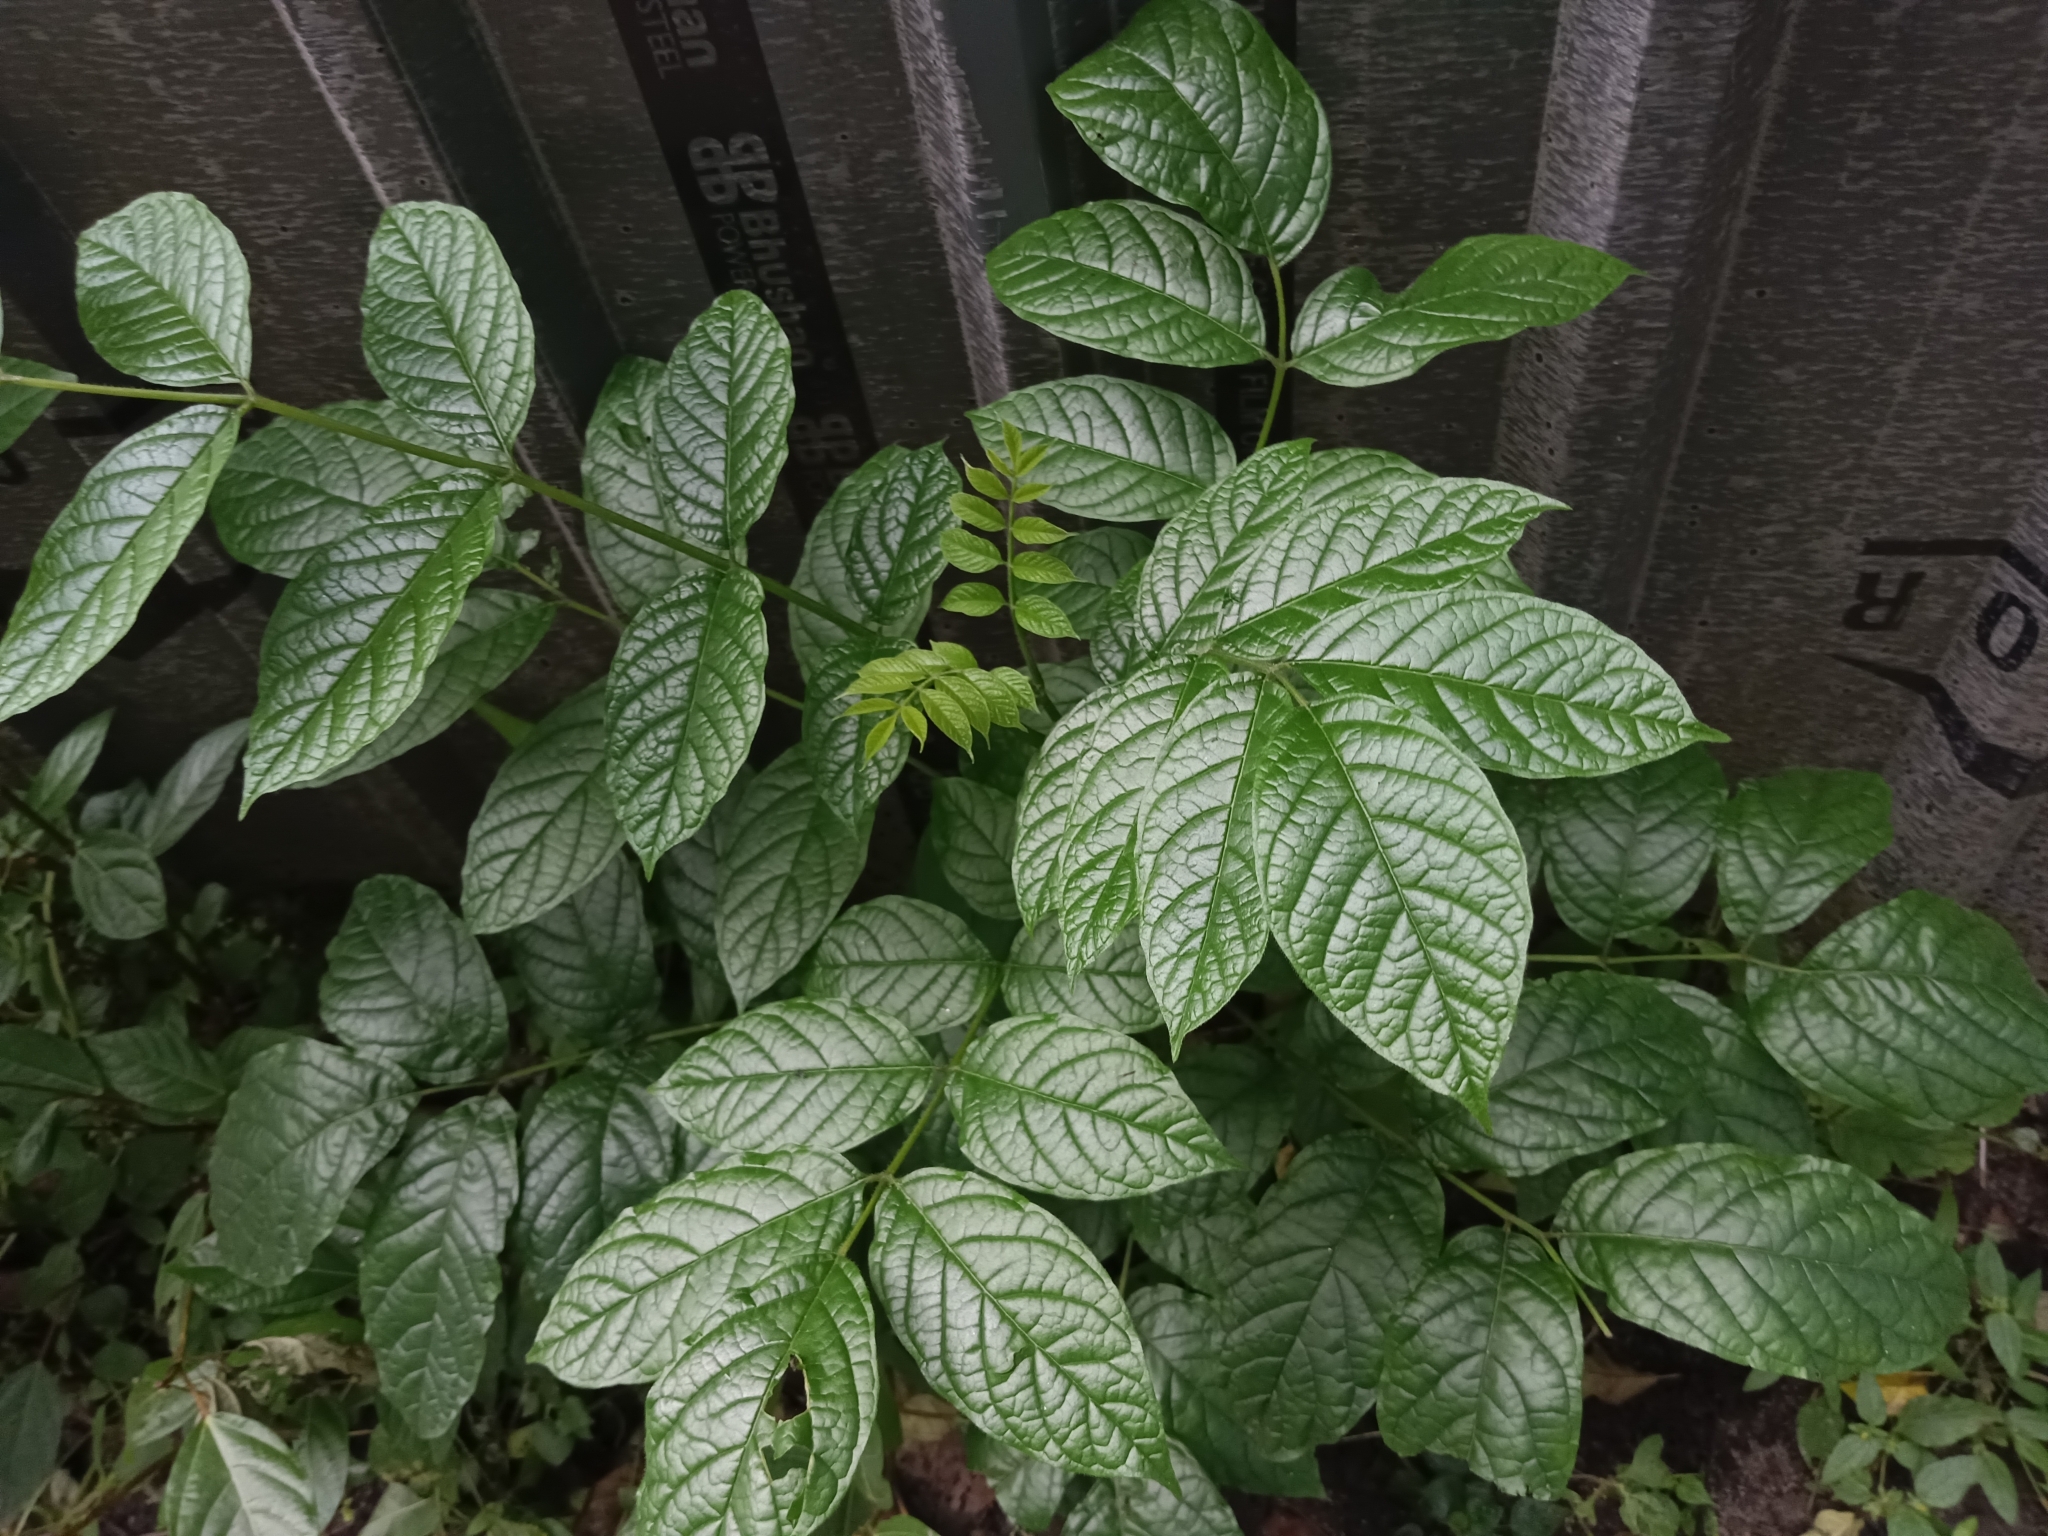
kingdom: Plantae
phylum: Tracheophyta
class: Magnoliopsida
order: Lamiales
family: Bignoniaceae
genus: Spathodea
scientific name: Spathodea campanulata
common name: African tuliptree
